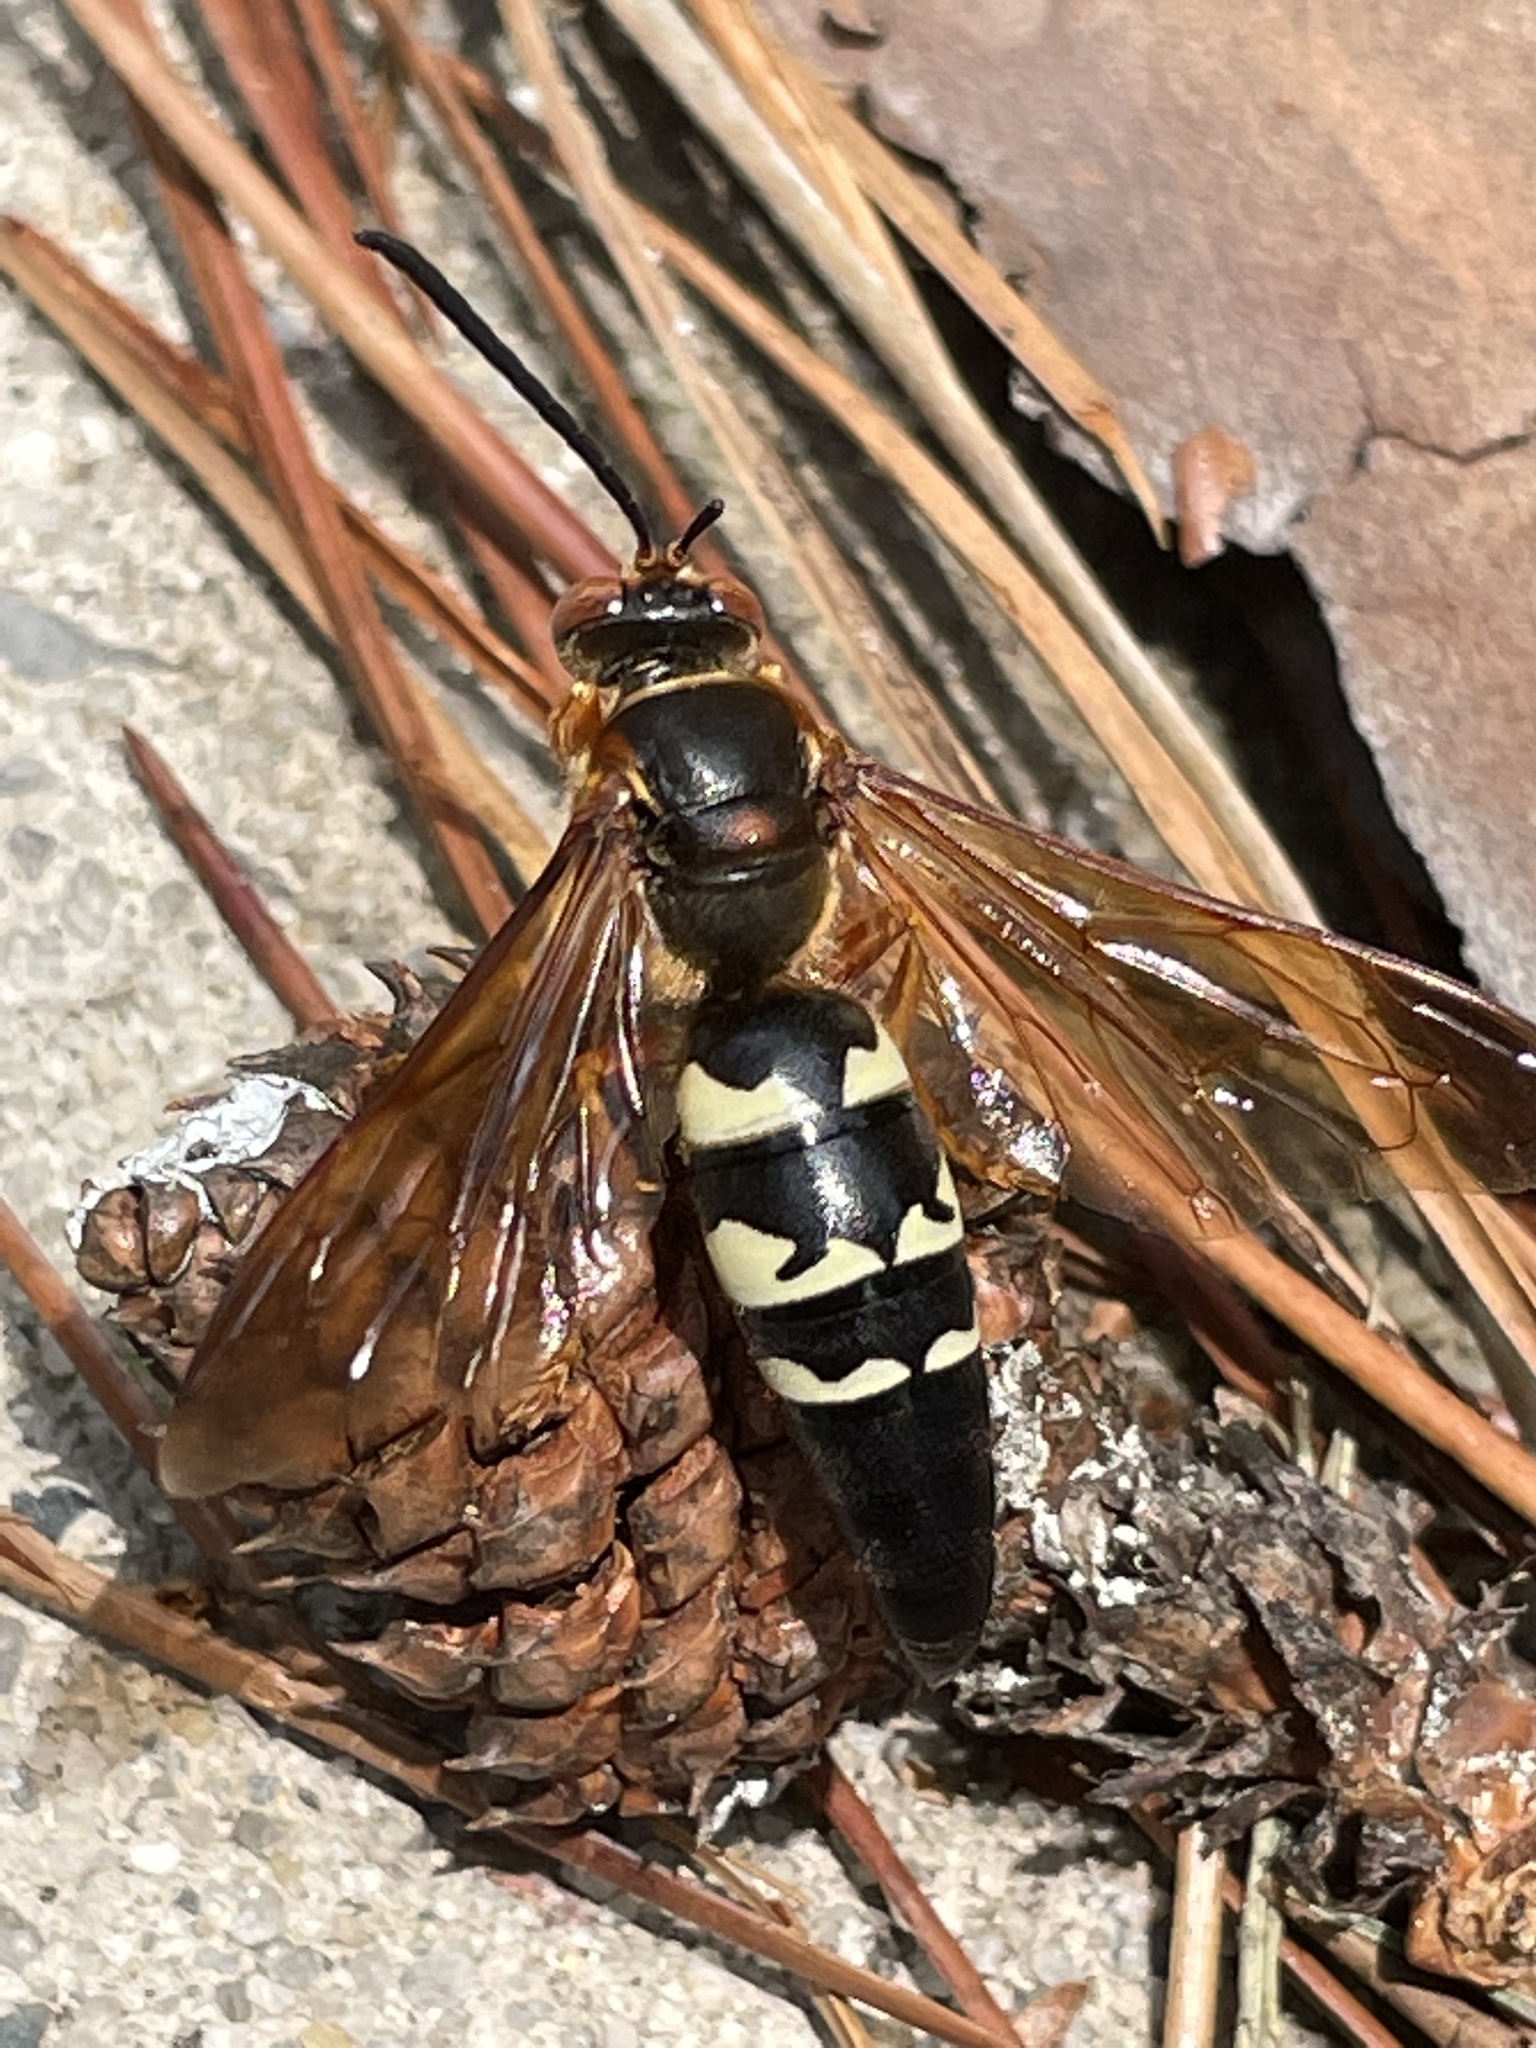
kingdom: Animalia
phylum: Arthropoda
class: Insecta
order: Hymenoptera
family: Crabronidae
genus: Sphecius
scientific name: Sphecius speciosus
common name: Cicada killer
